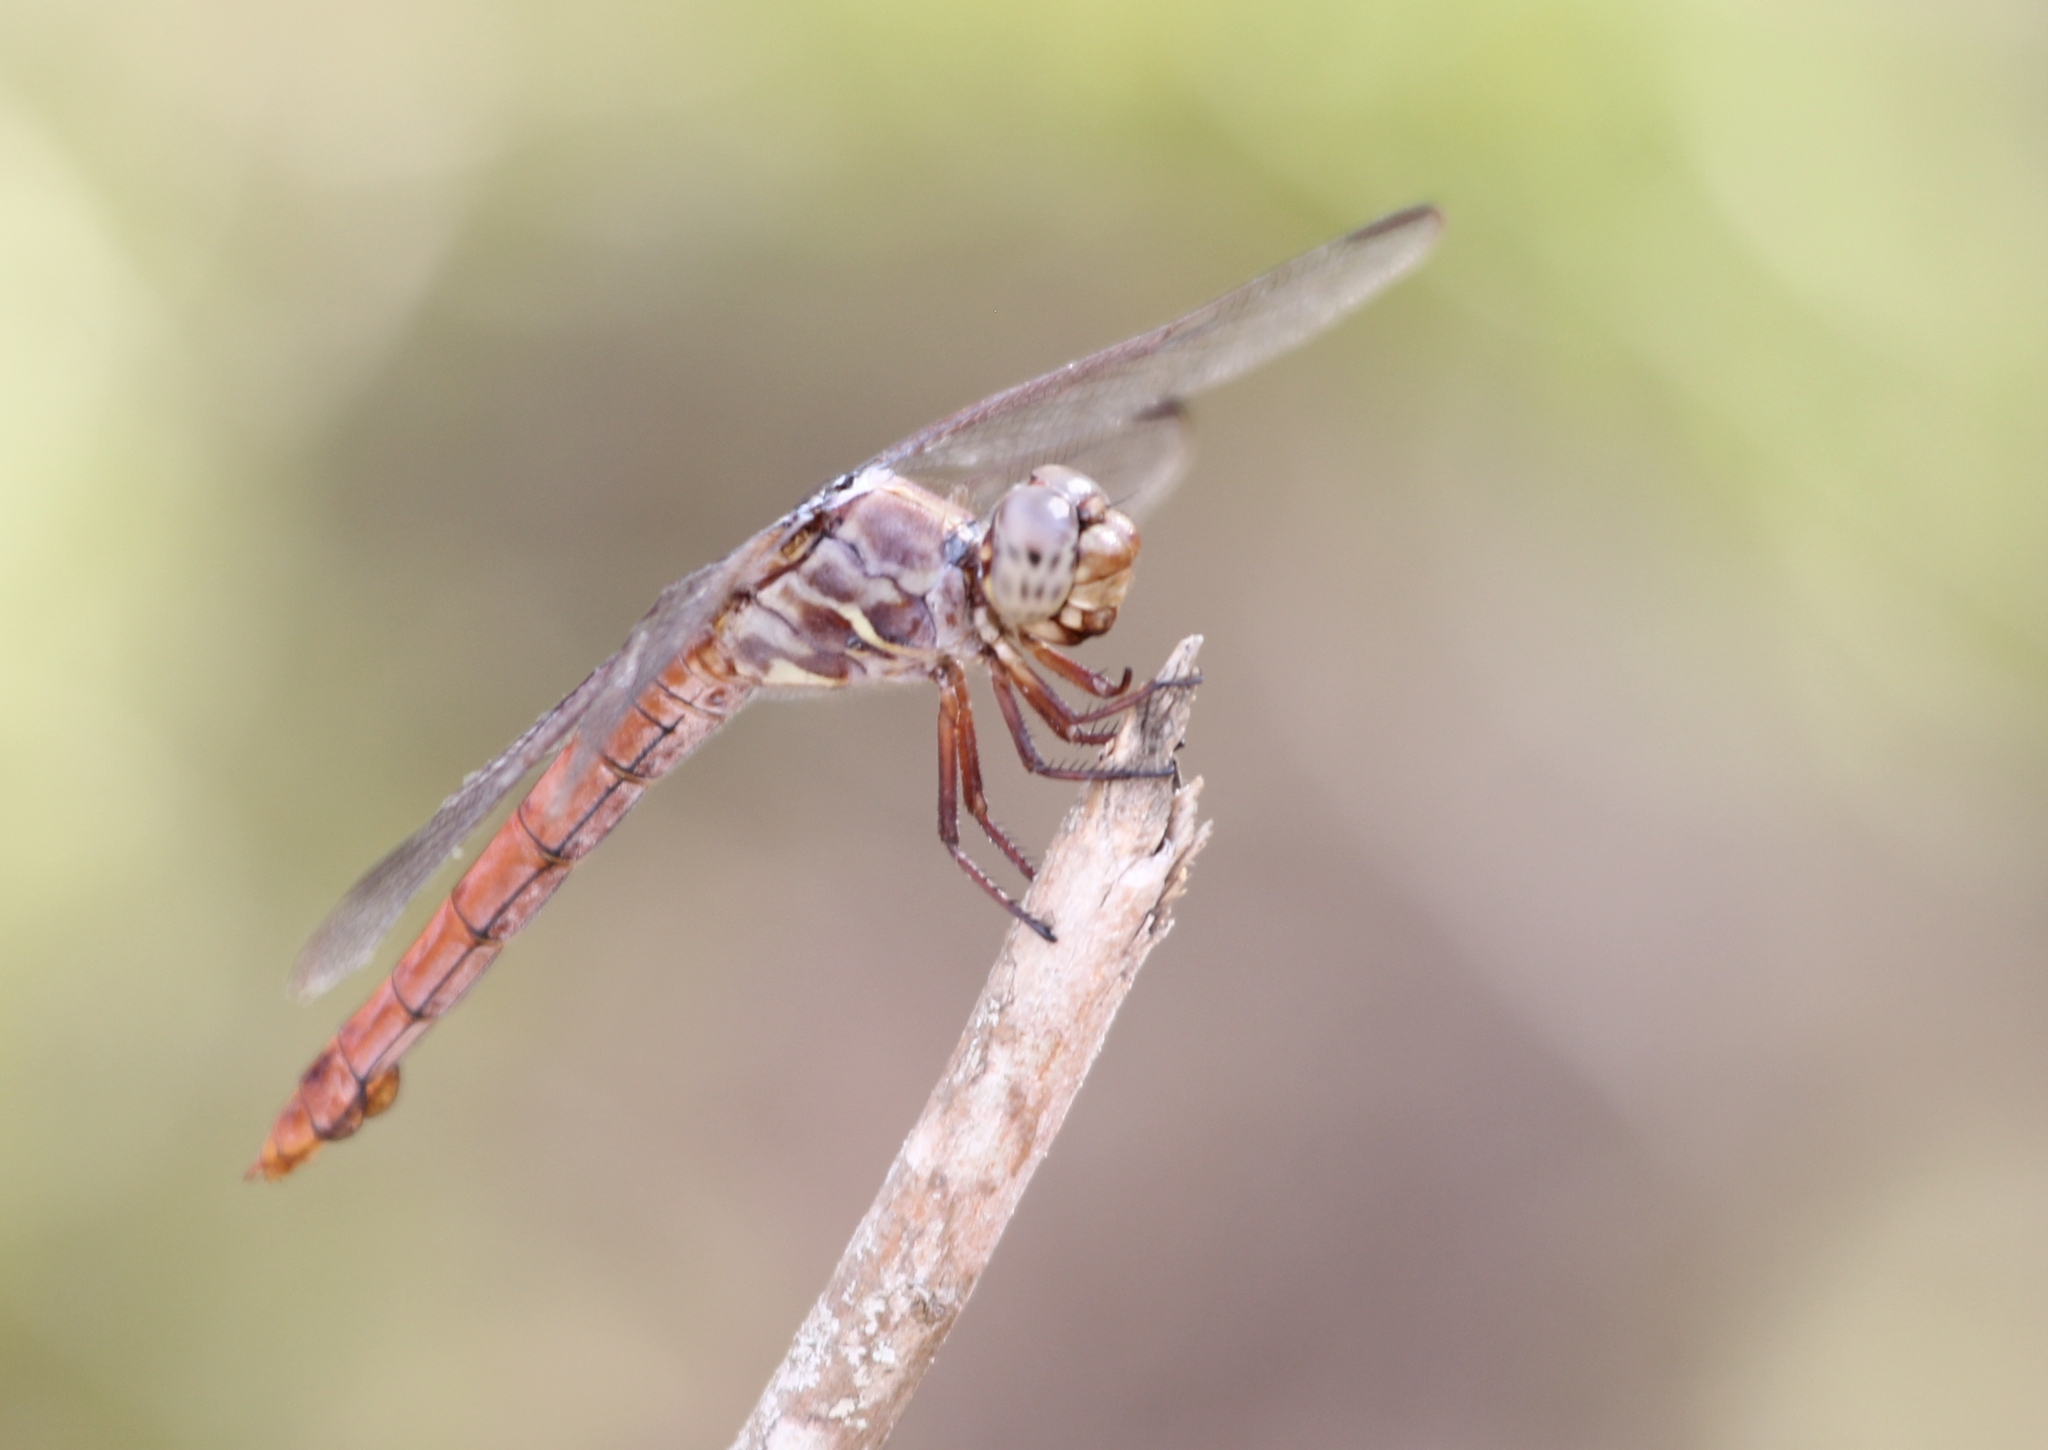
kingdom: Animalia
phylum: Arthropoda
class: Insecta
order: Odonata
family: Libellulidae
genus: Orthemis
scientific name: Orthemis ferruginea
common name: Roseate skimmer
